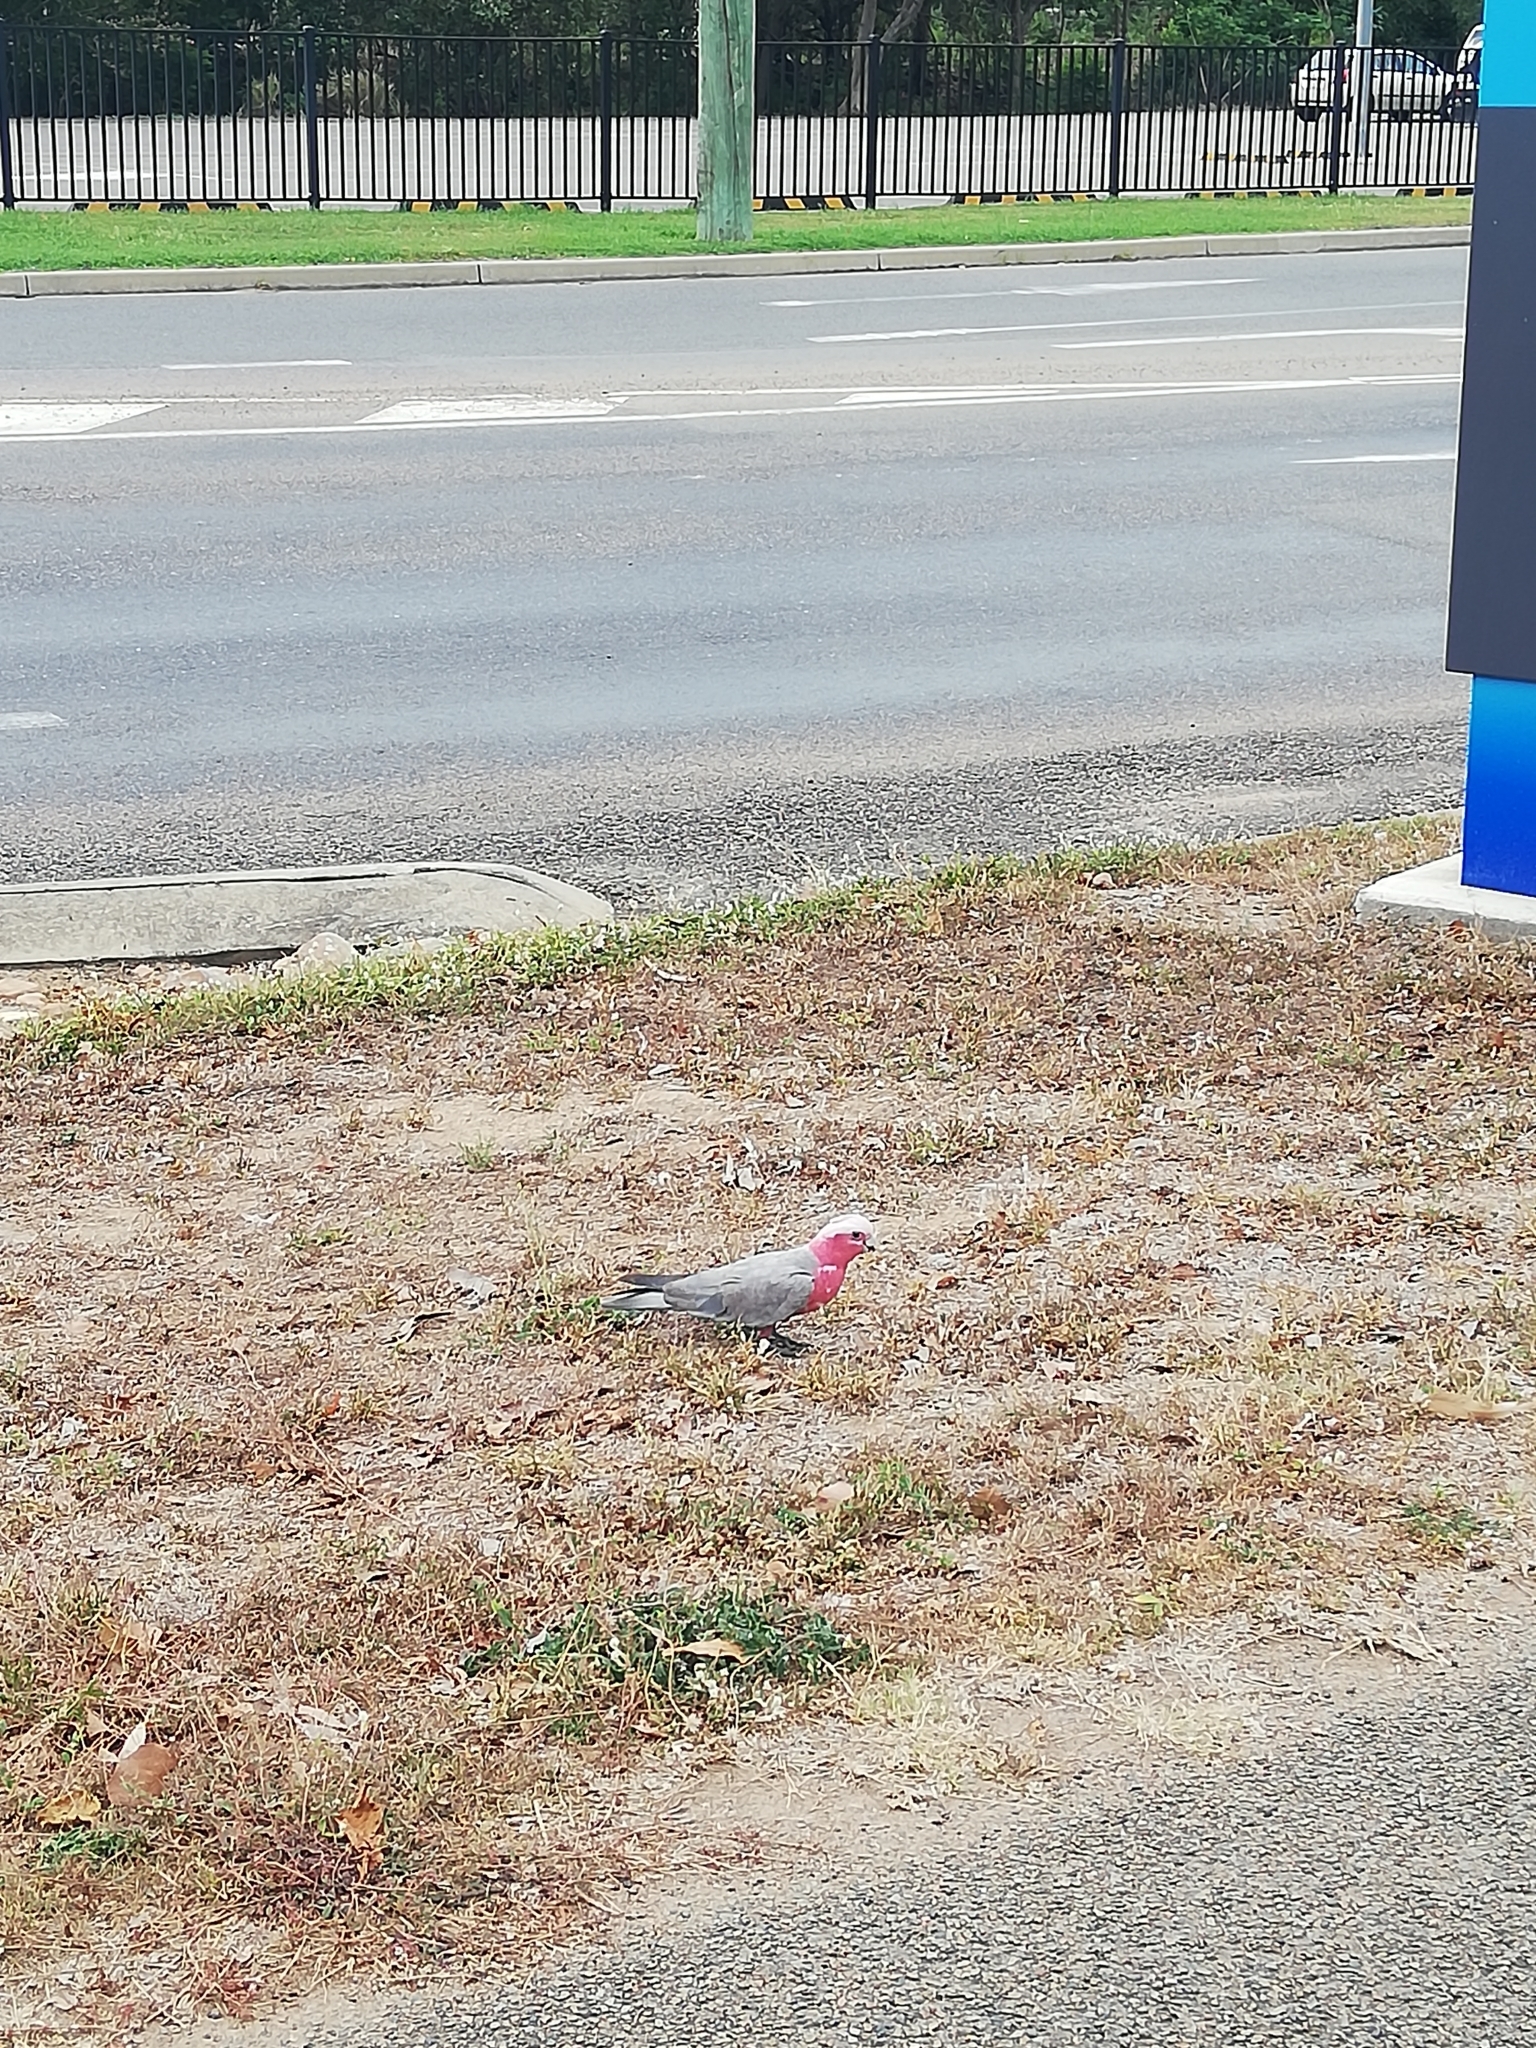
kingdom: Animalia
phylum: Chordata
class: Aves
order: Psittaciformes
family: Psittacidae
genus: Eolophus
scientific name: Eolophus roseicapilla
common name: Galah
